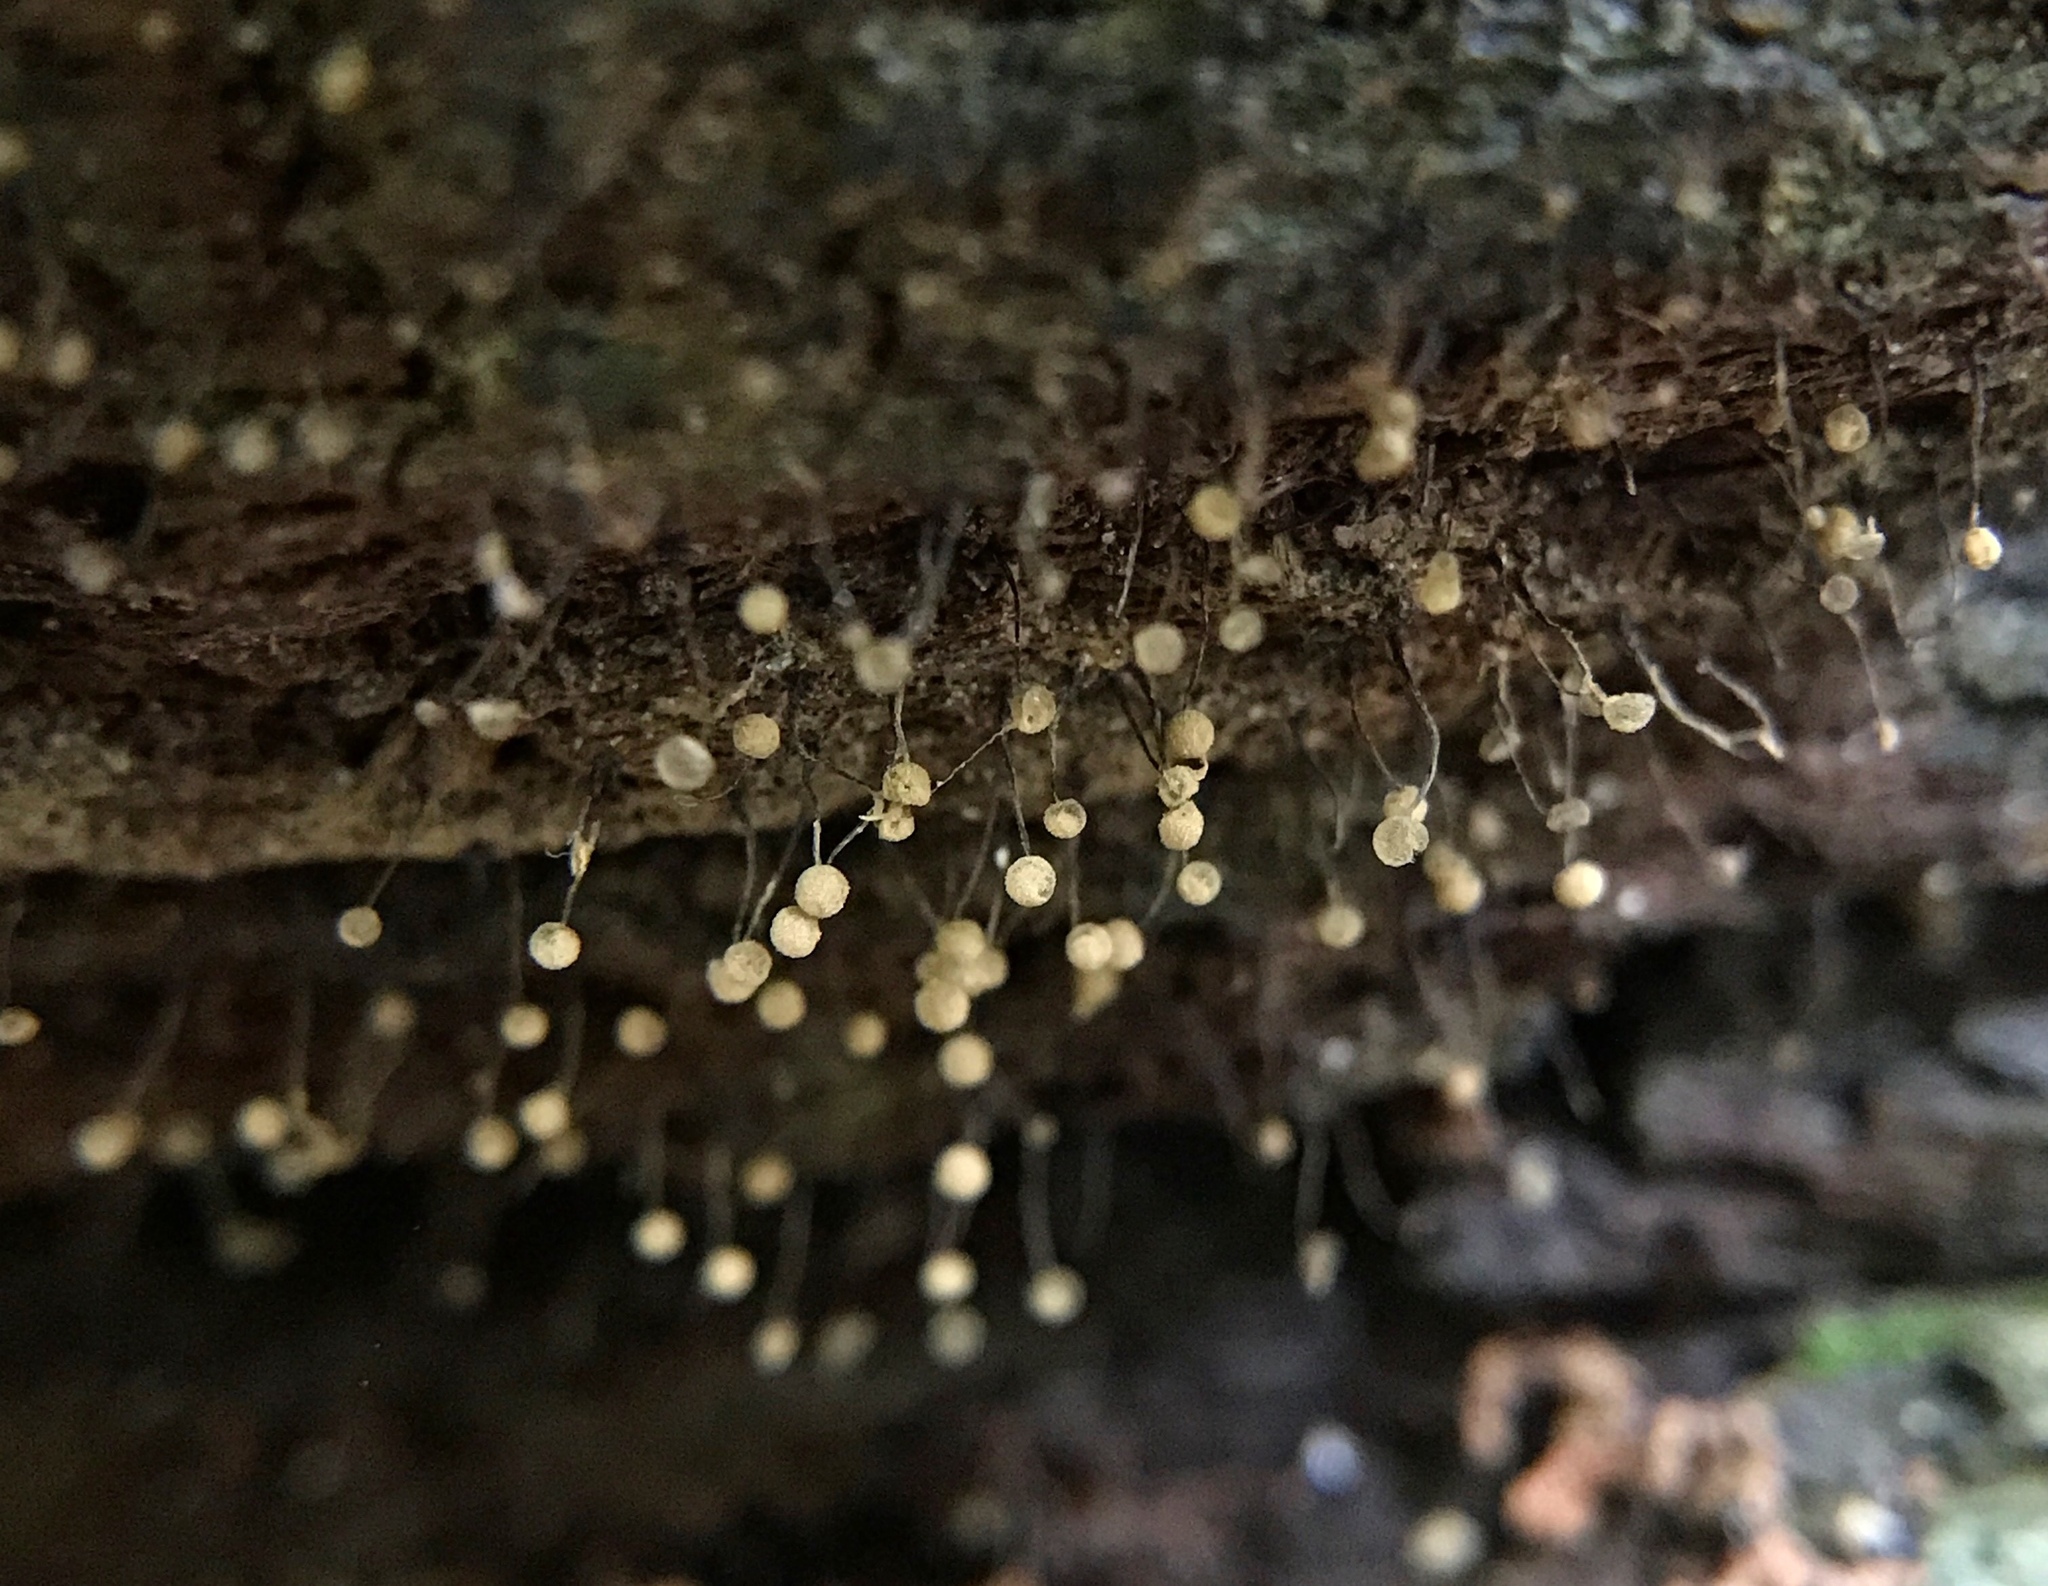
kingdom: Protozoa
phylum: Mycetozoa
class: Myxomycetes
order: Cribrariales
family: Cribrariaceae
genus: Cribraria
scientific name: Cribraria microcarpa
